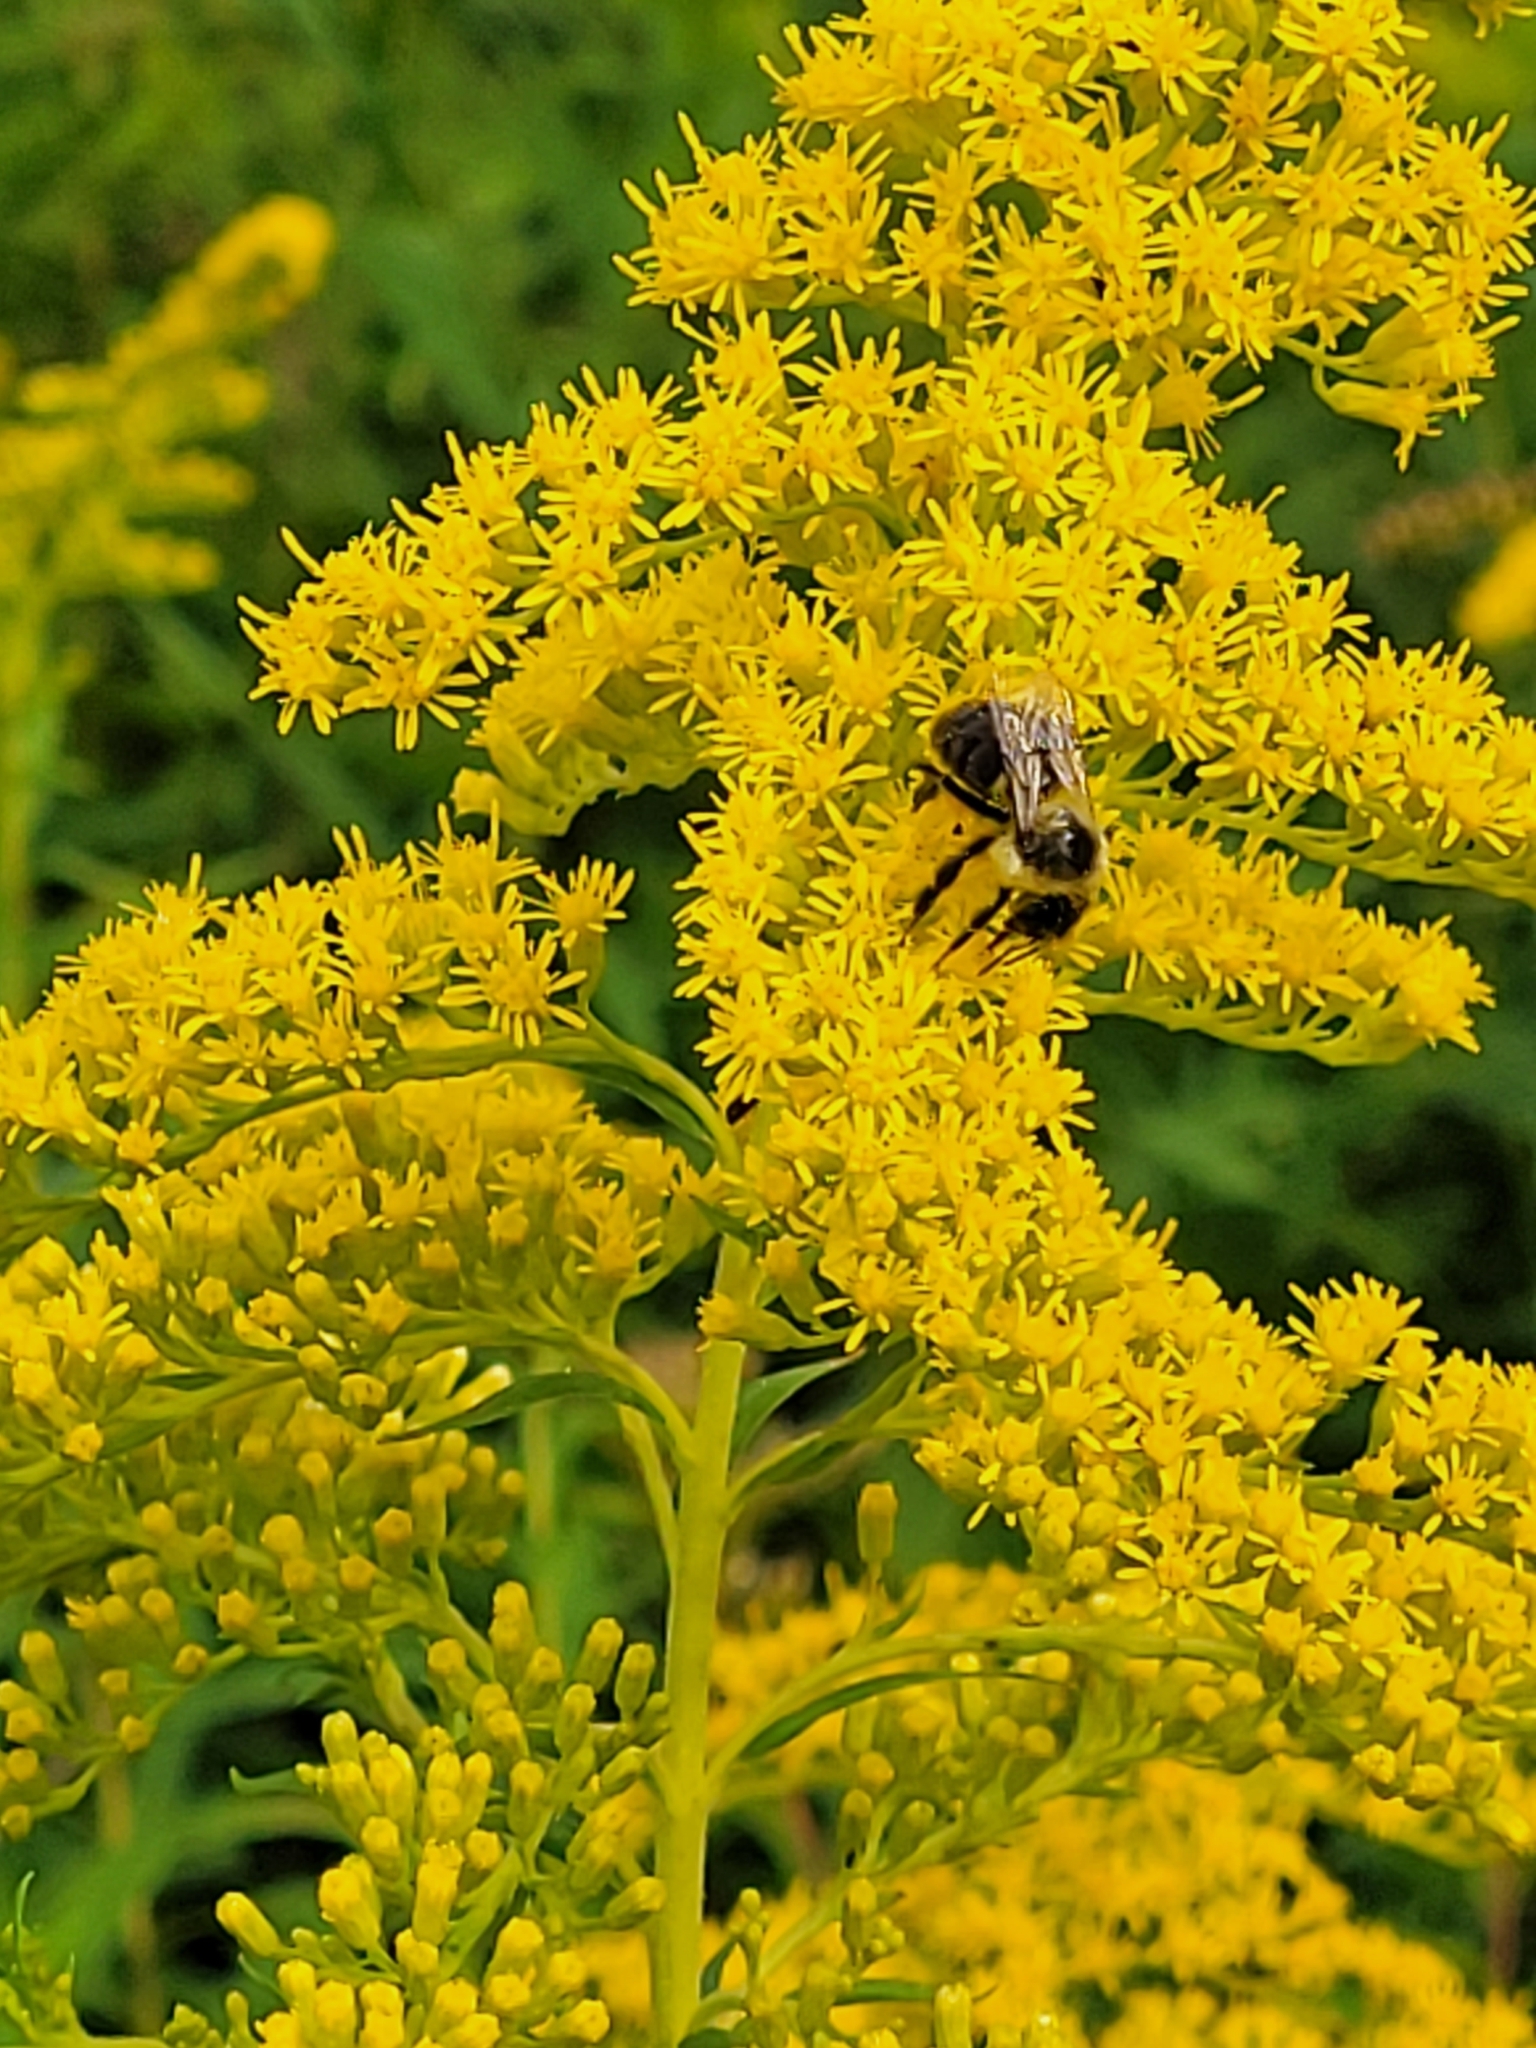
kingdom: Animalia
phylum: Arthropoda
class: Insecta
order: Hymenoptera
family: Apidae
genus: Bombus
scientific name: Bombus impatiens
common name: Common eastern bumble bee
